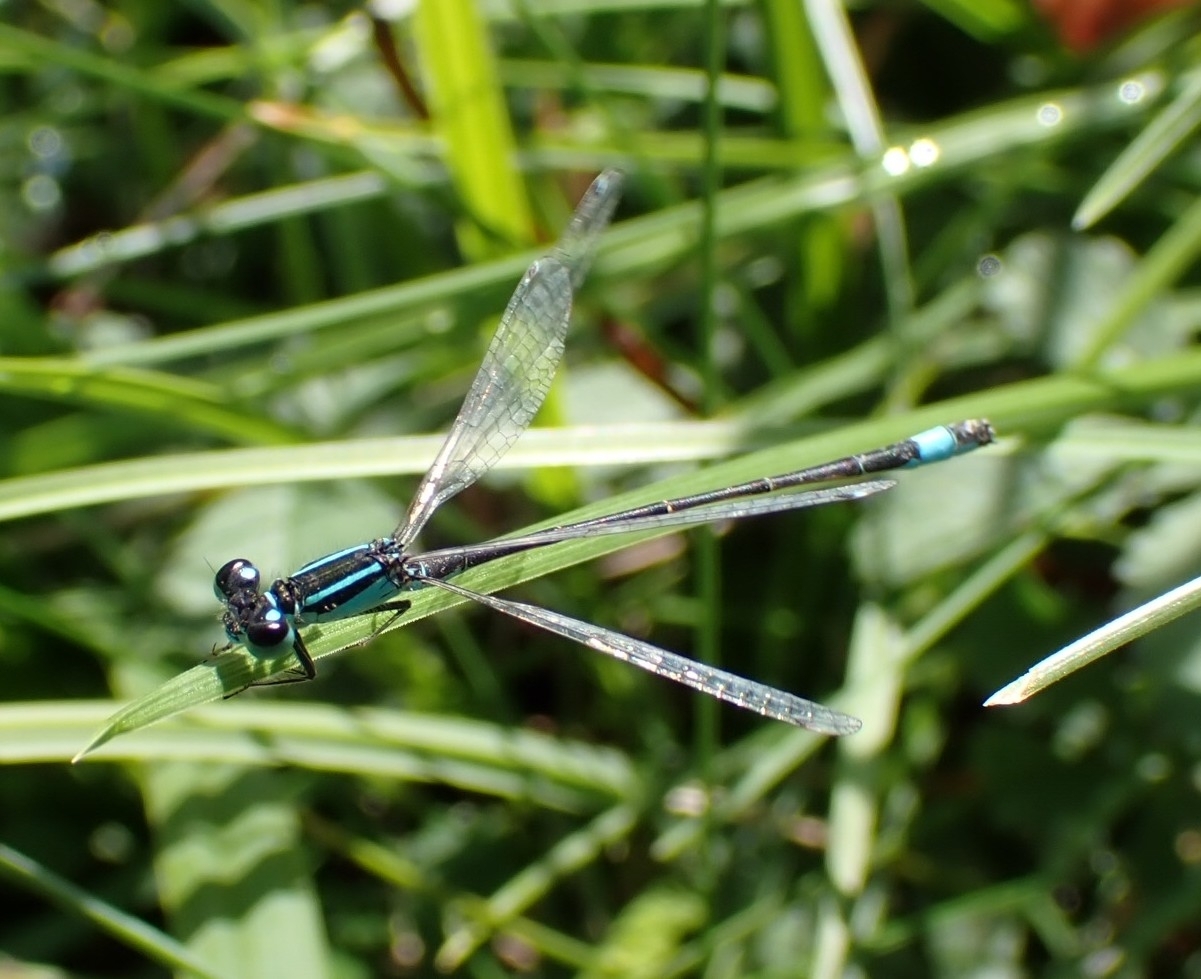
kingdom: Animalia
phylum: Arthropoda
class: Insecta
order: Odonata
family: Coenagrionidae
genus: Ischnura
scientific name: Ischnura elegans
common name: Blue-tailed damselfly
